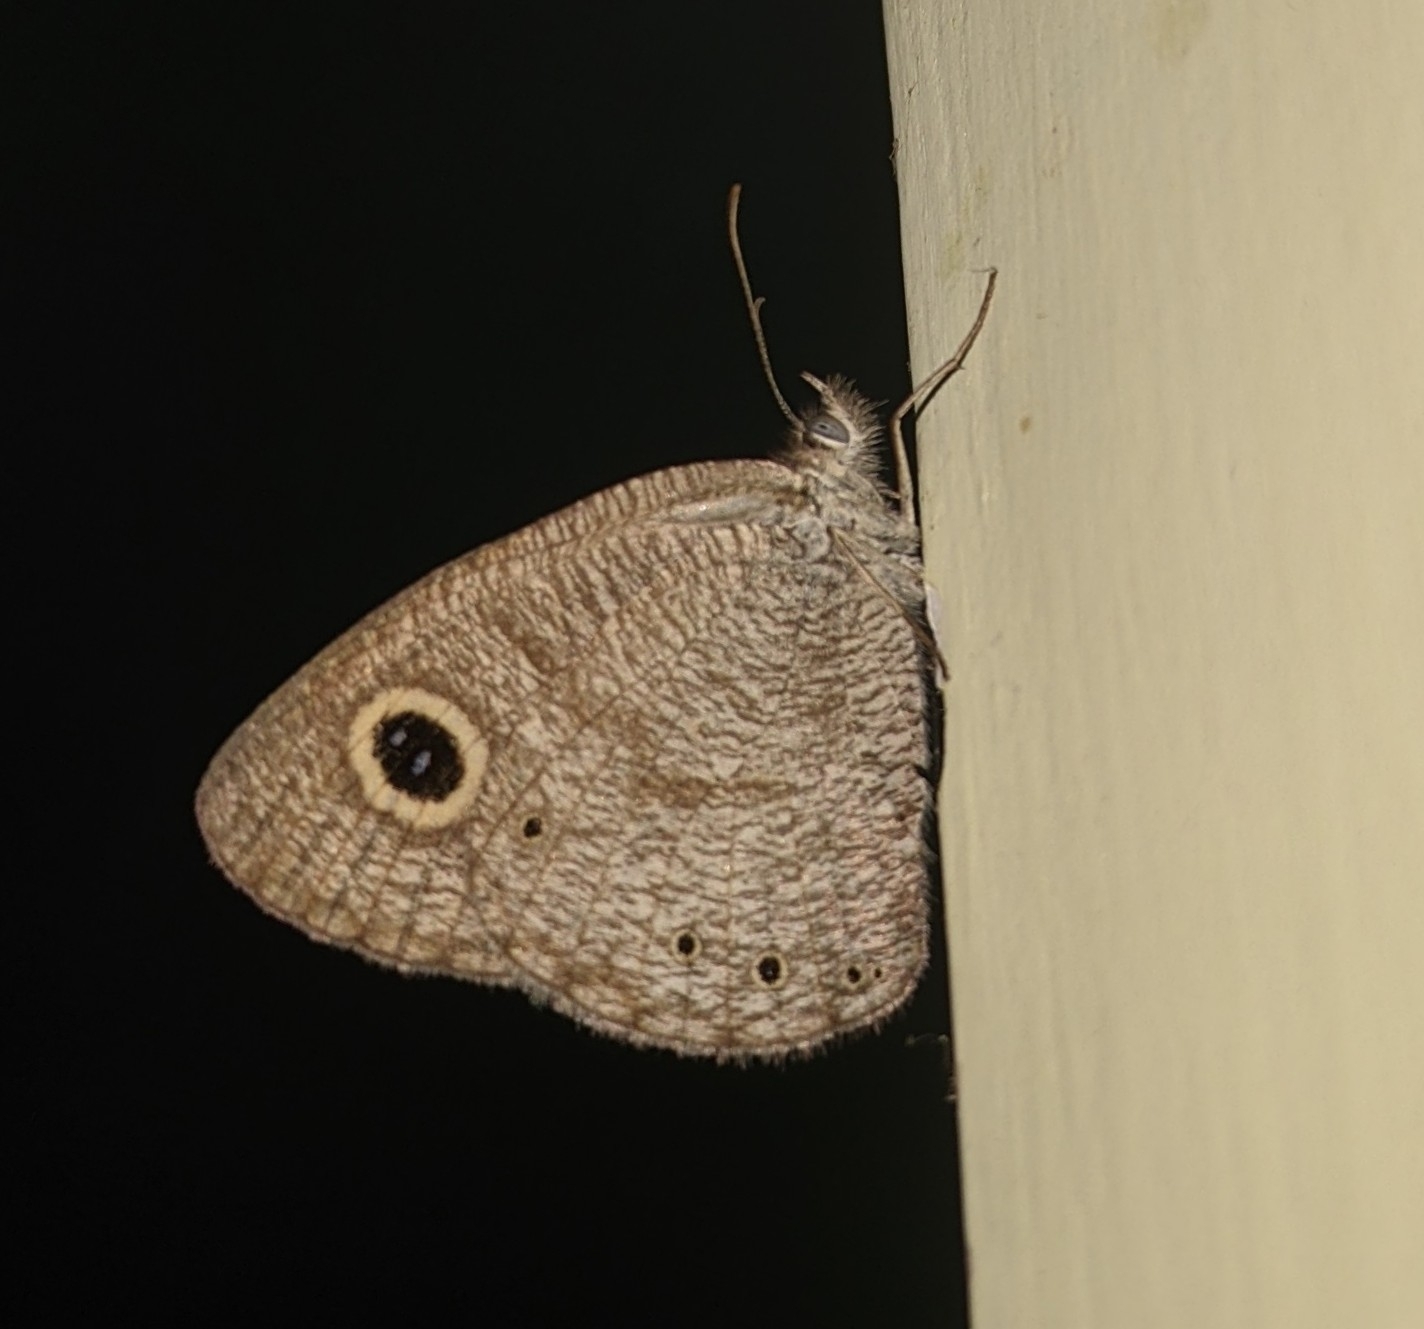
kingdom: Animalia
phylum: Arthropoda
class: Insecta
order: Lepidoptera
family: Nymphalidae
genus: Ypthima
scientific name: Ypthima huebneri
